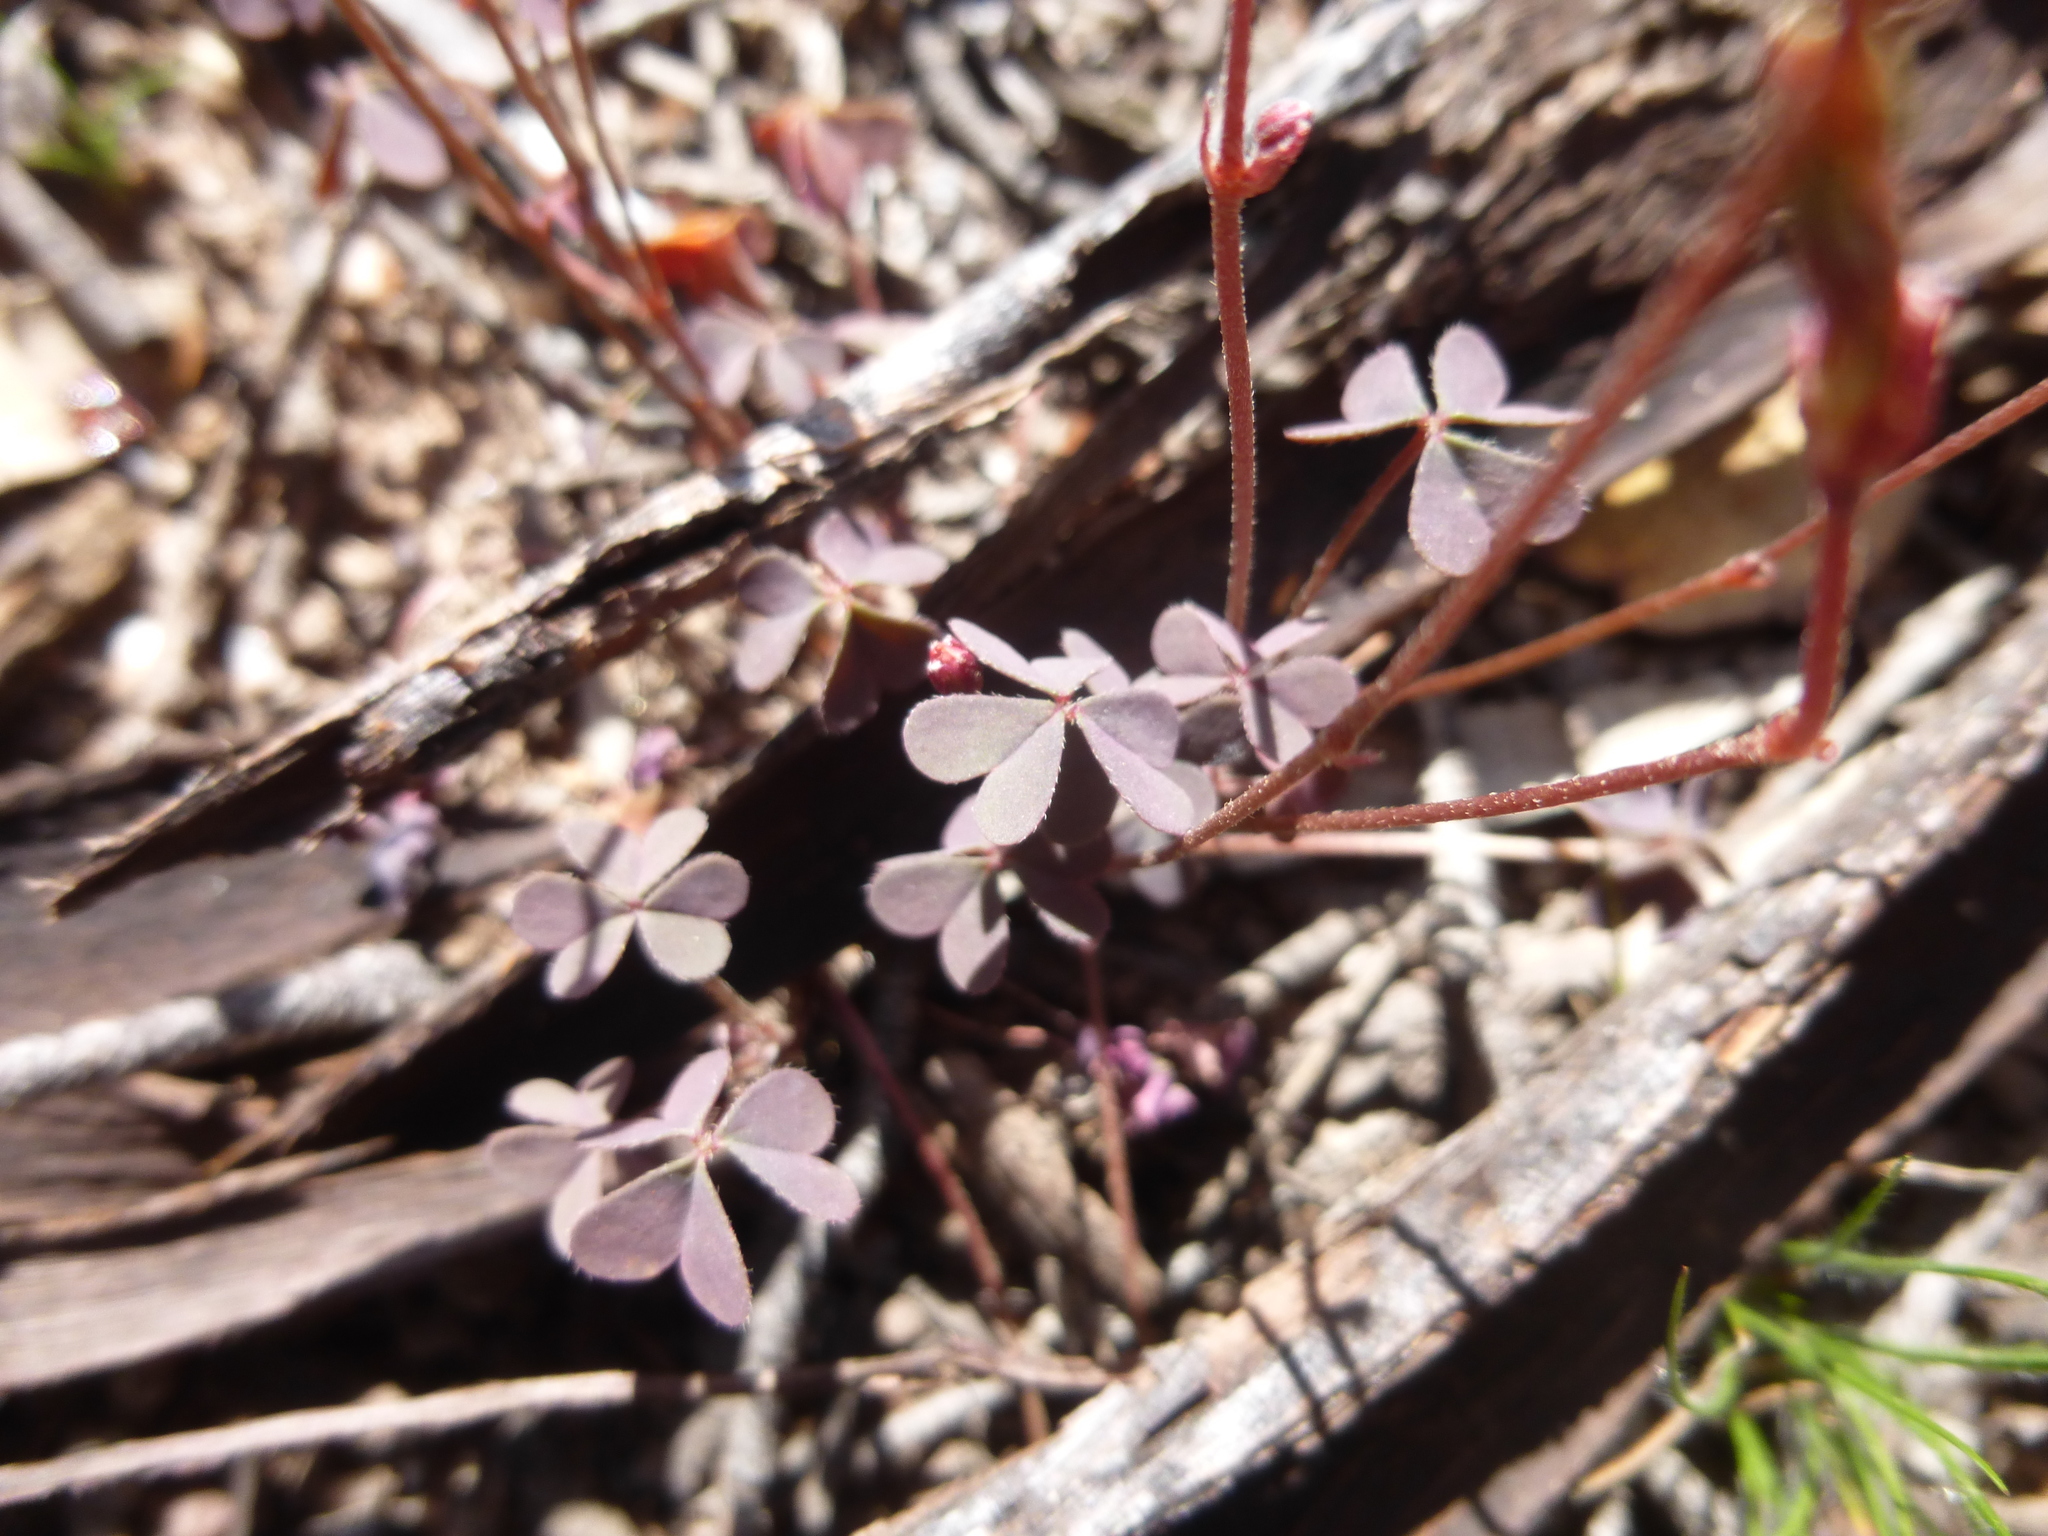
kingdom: Plantae
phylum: Tracheophyta
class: Magnoliopsida
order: Oxalidales
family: Oxalidaceae
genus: Oxalis
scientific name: Oxalis corniculata
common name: Procumbent yellow-sorrel
